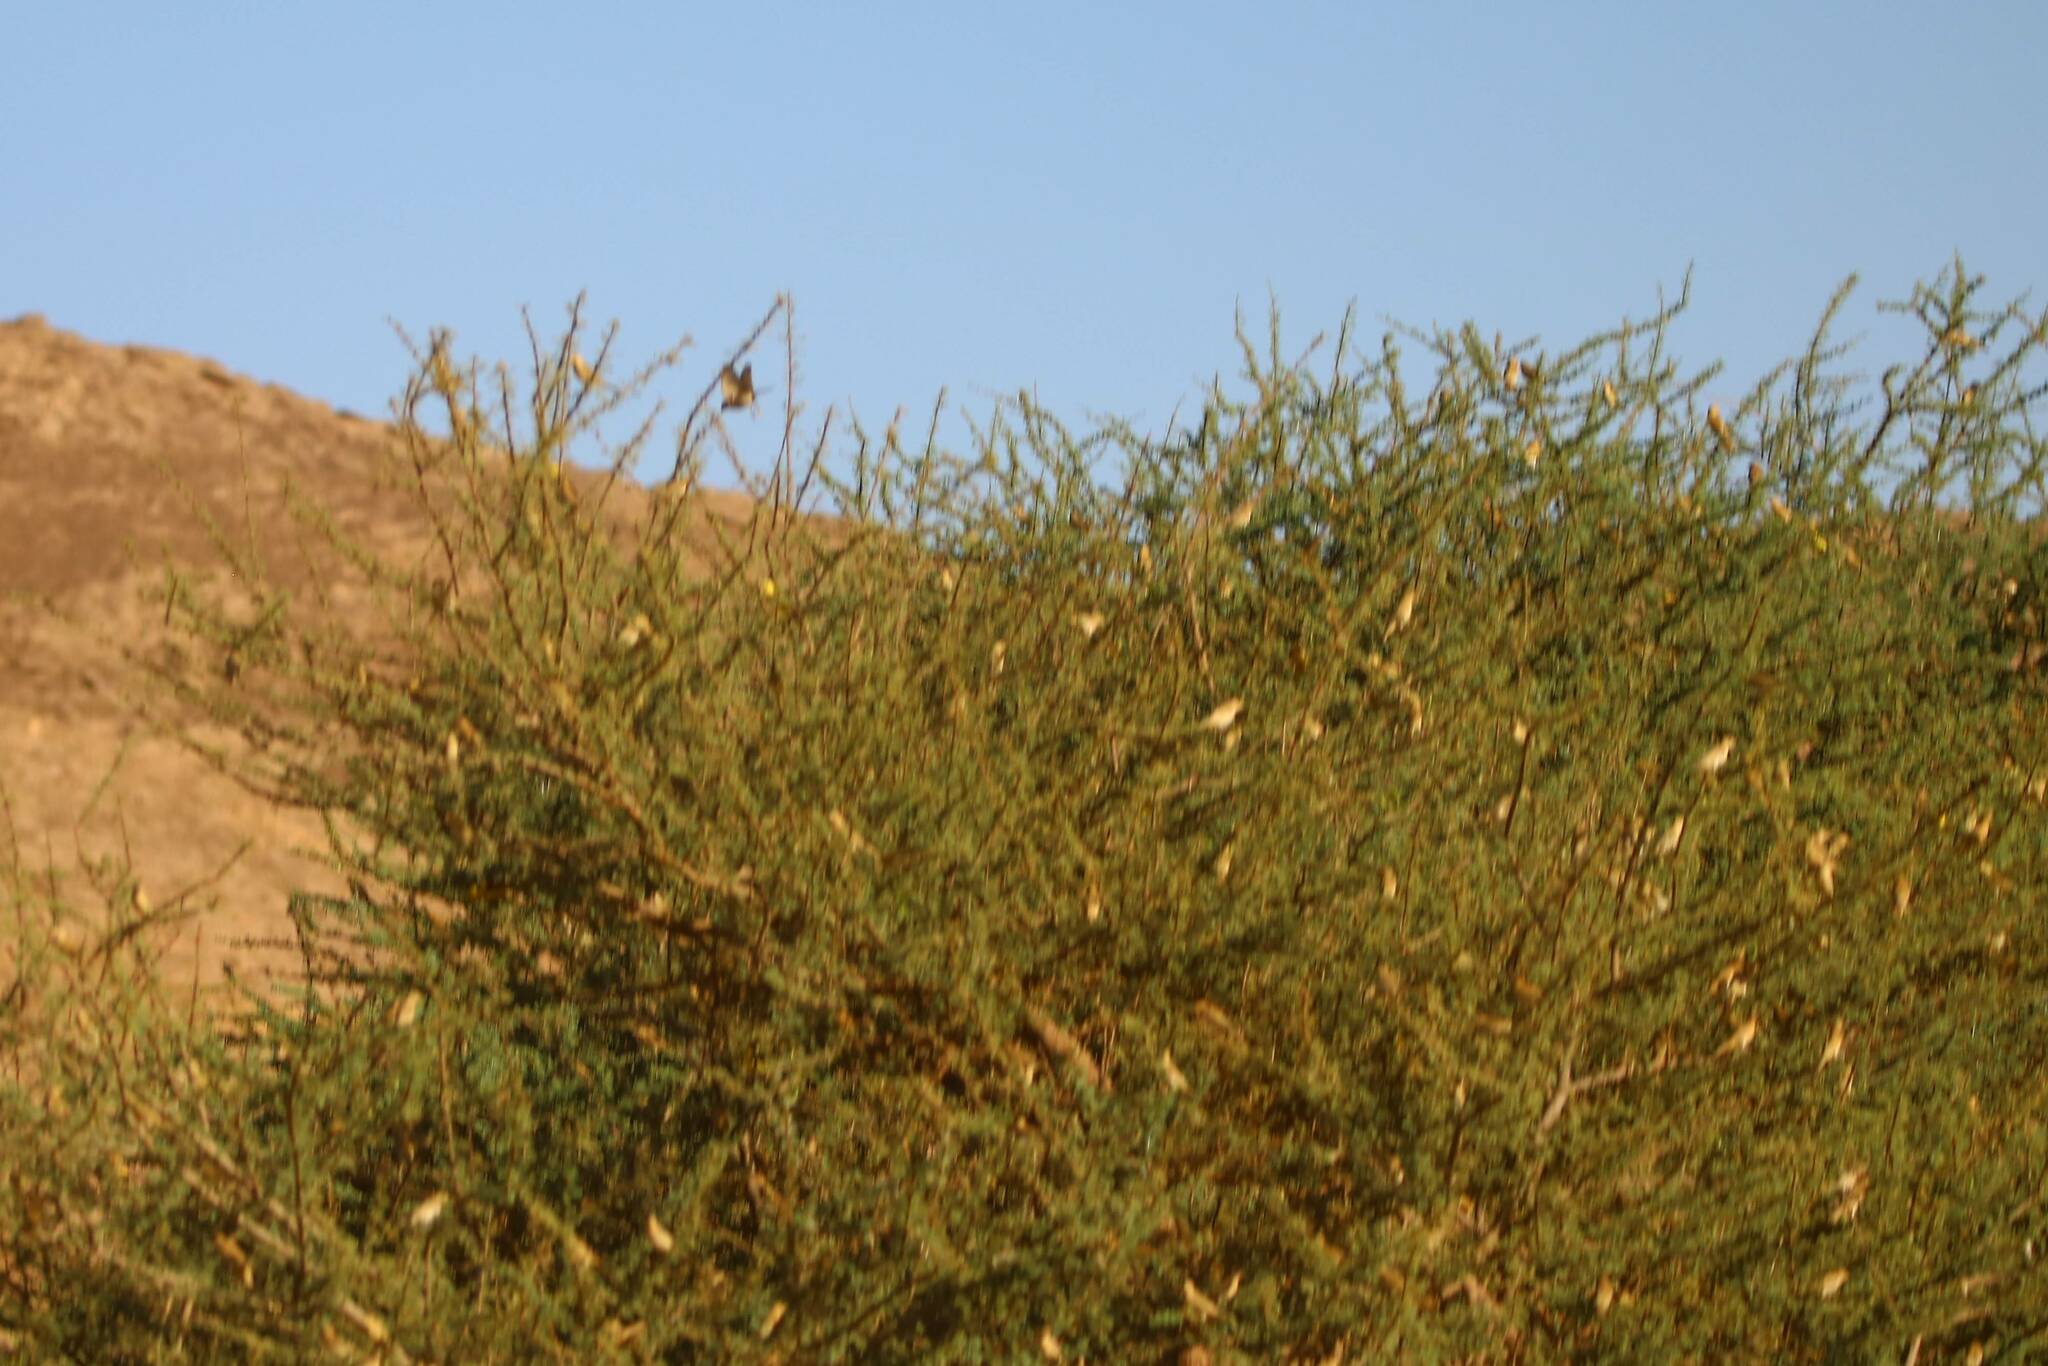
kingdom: Animalia
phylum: Chordata
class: Aves
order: Passeriformes
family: Passeridae
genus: Passer
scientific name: Passer luteus
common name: Sudan golden sparrow
